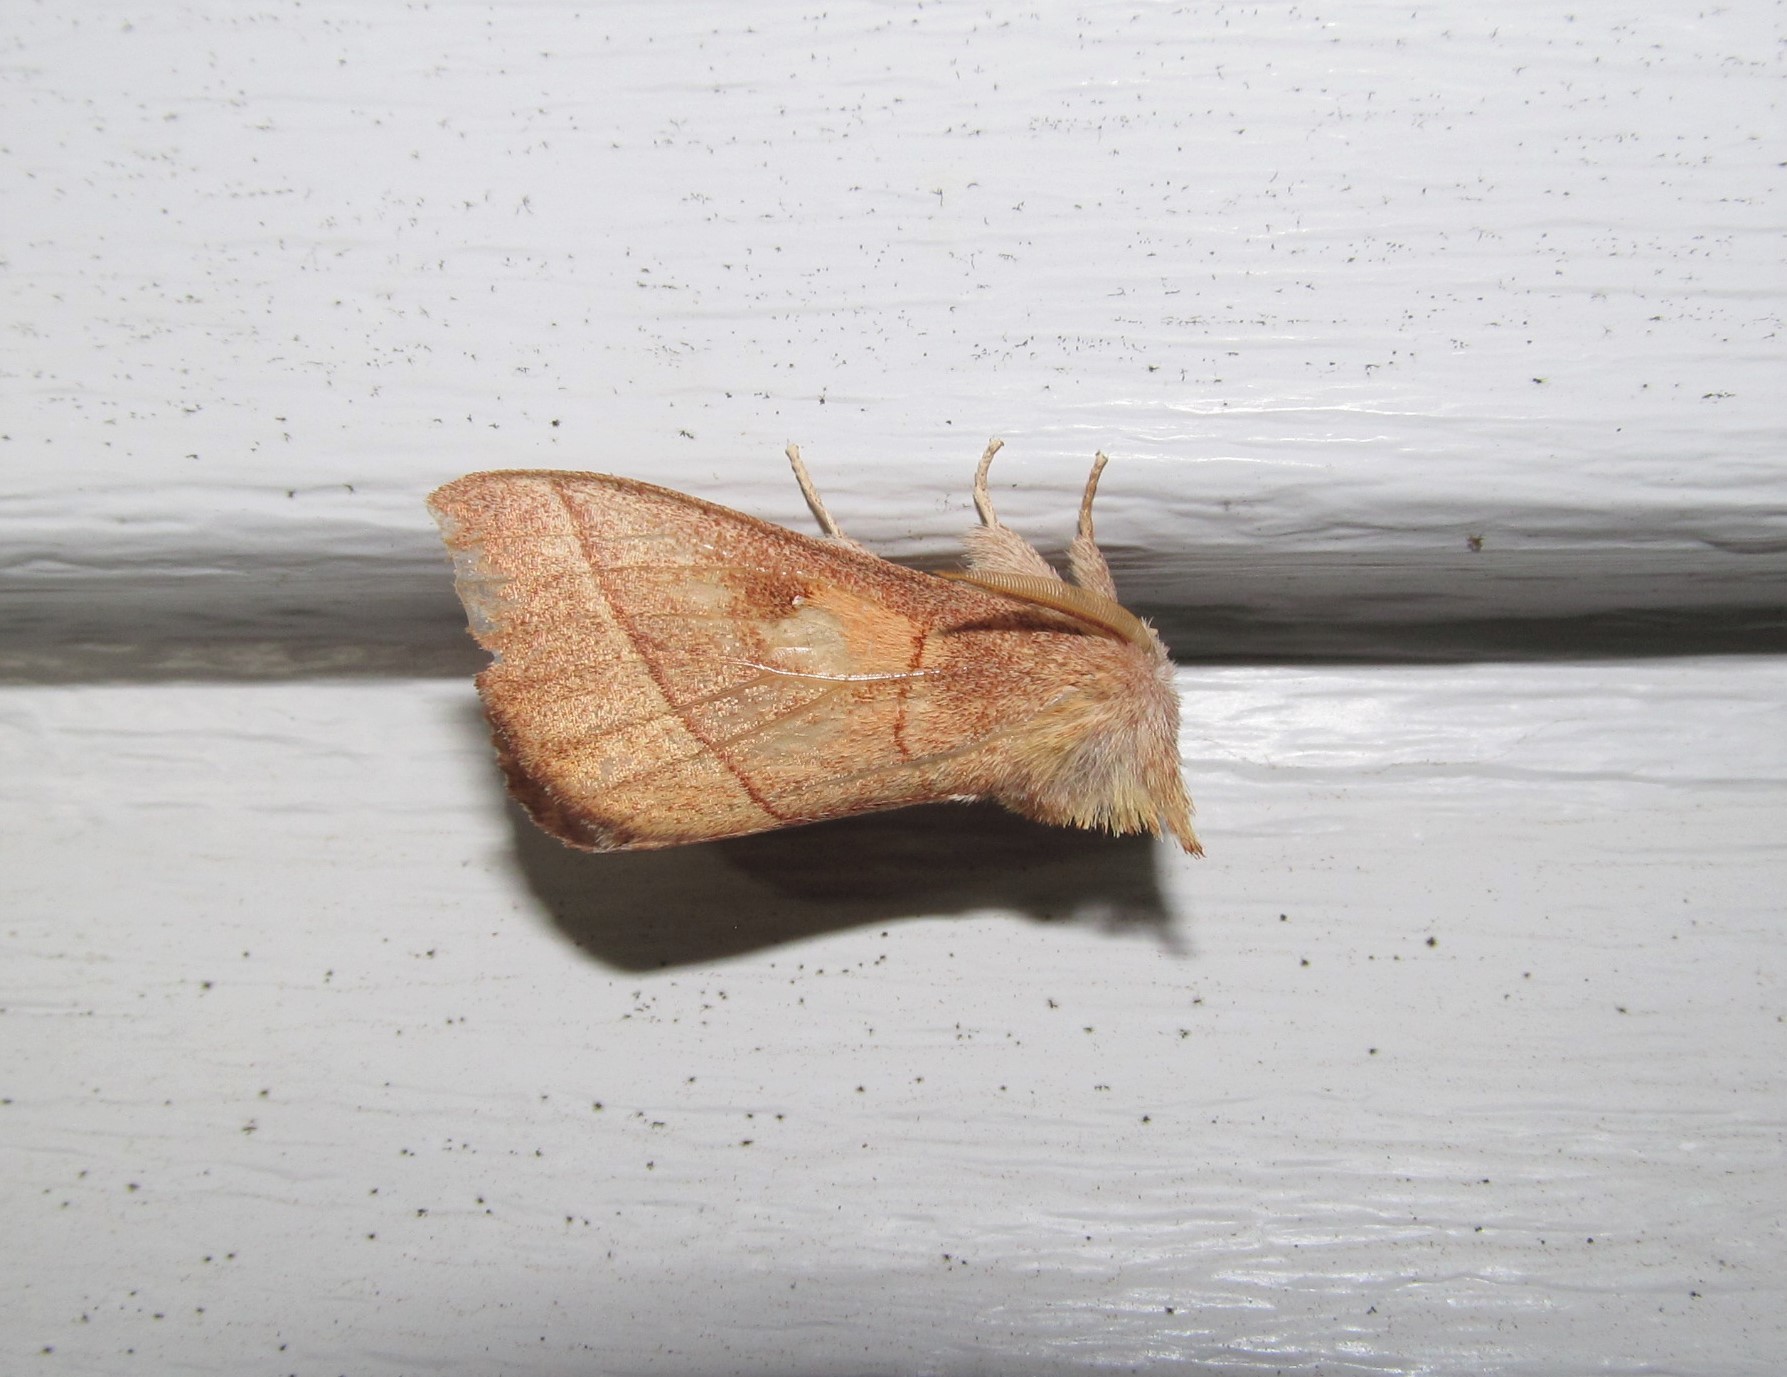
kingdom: Animalia
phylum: Arthropoda
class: Insecta
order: Lepidoptera
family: Notodontidae
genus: Nadata
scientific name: Nadata gibbosa
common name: White-dotted prominent
